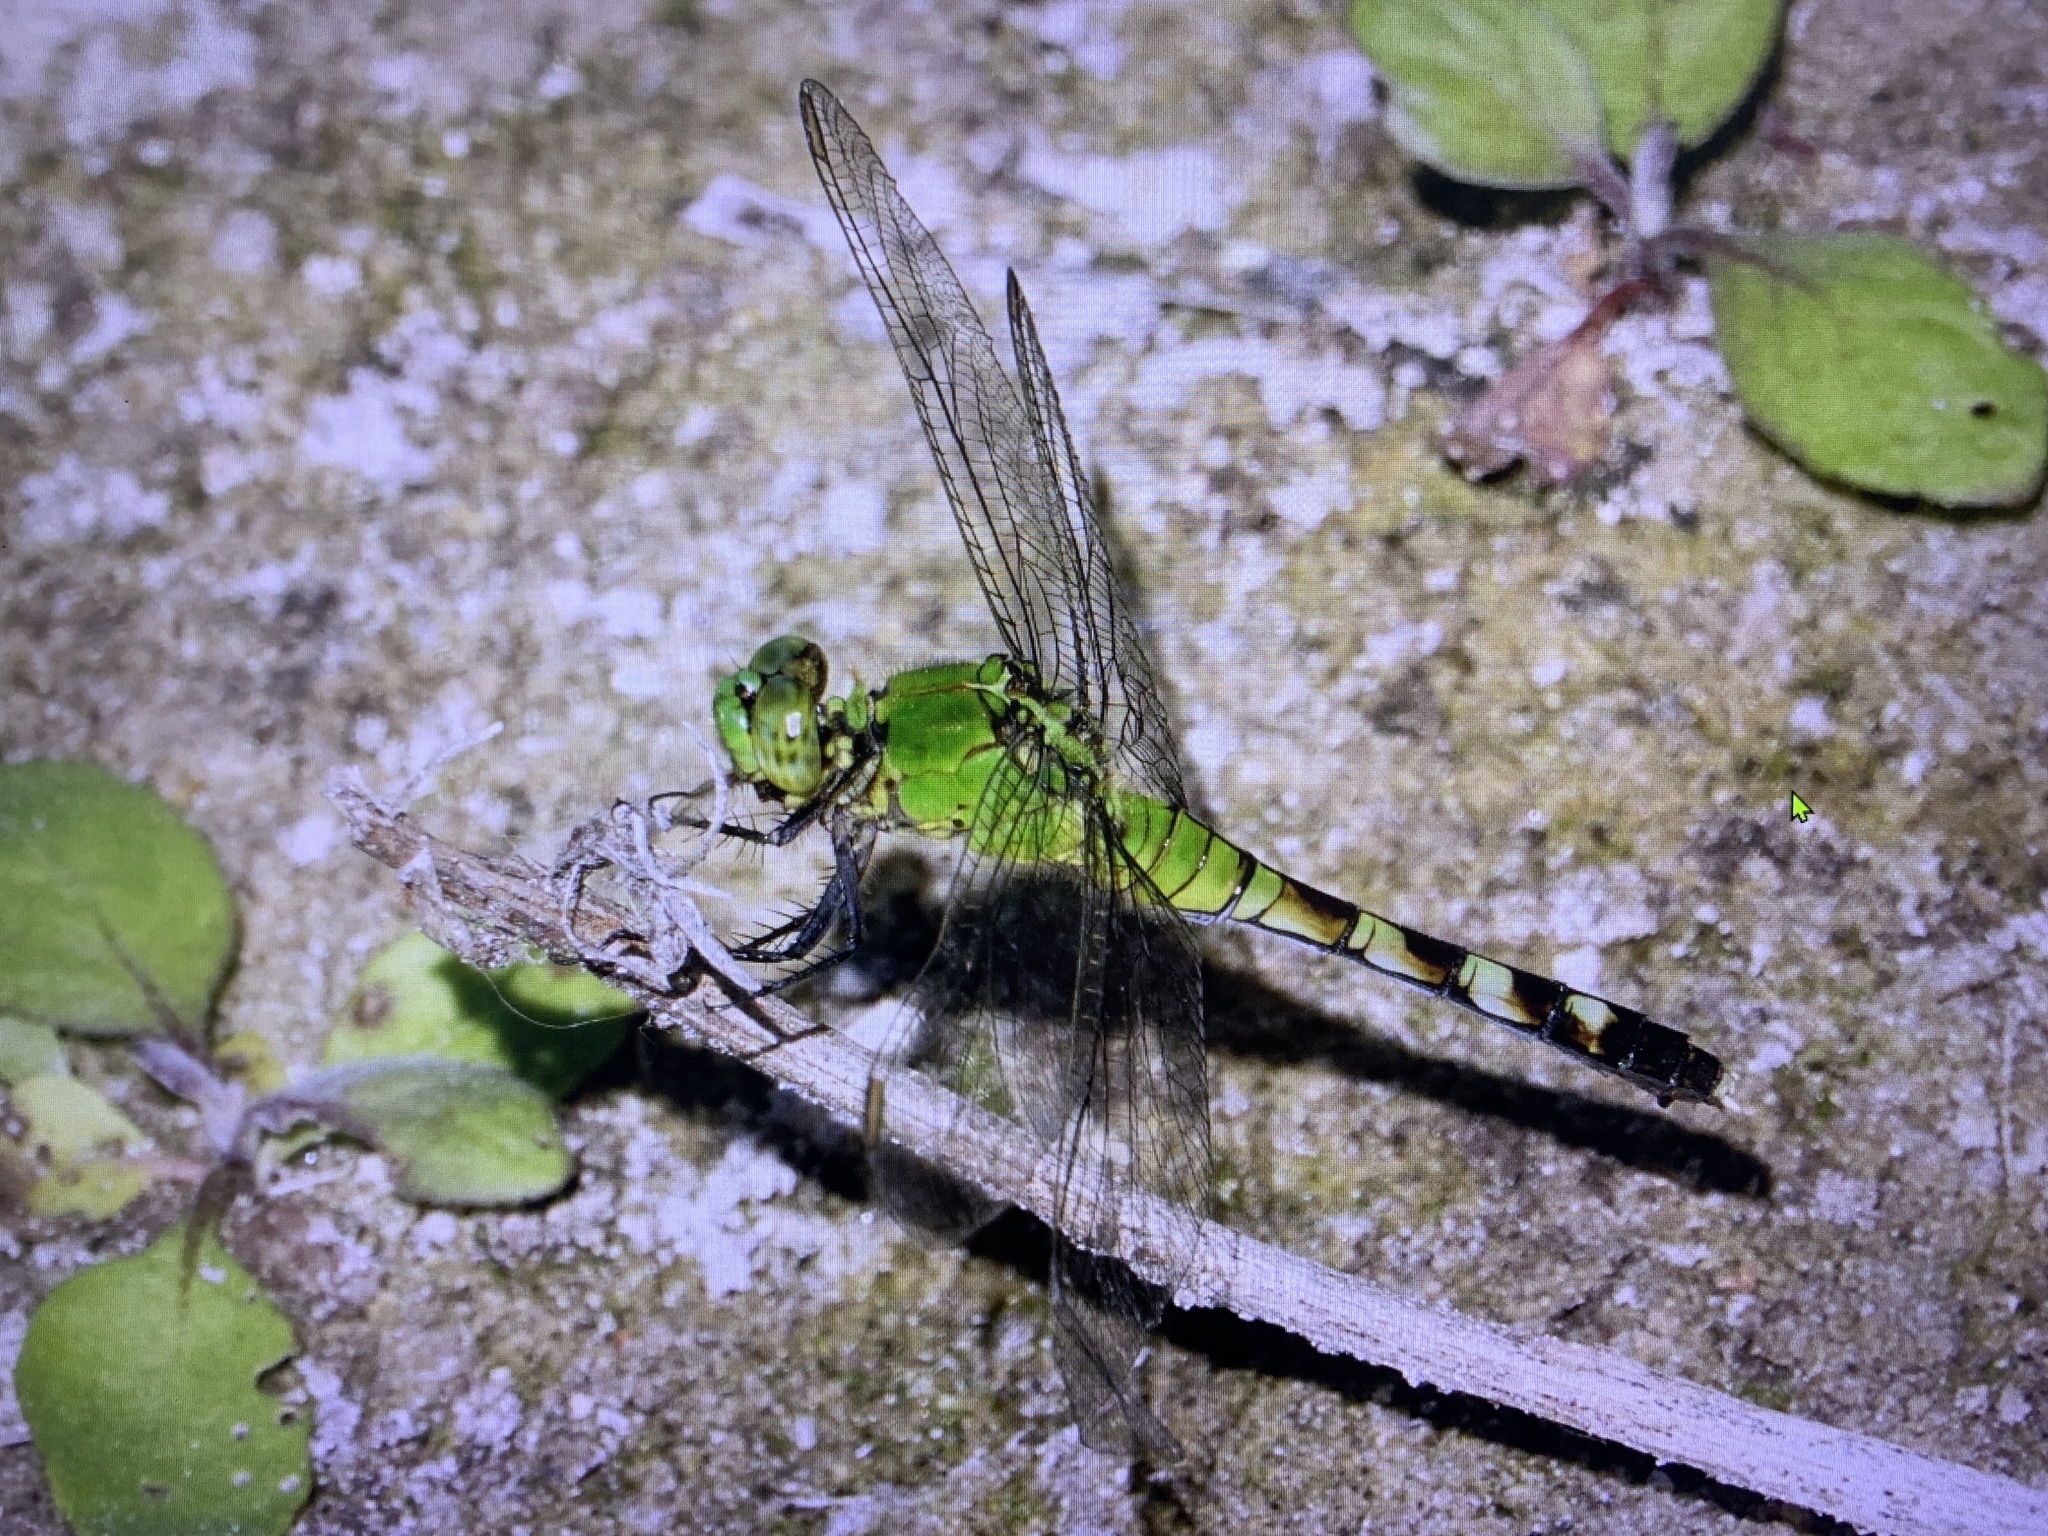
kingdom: Animalia
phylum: Arthropoda
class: Insecta
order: Odonata
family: Libellulidae
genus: Erythemis
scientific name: Erythemis simplicicollis
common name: Eastern pondhawk
